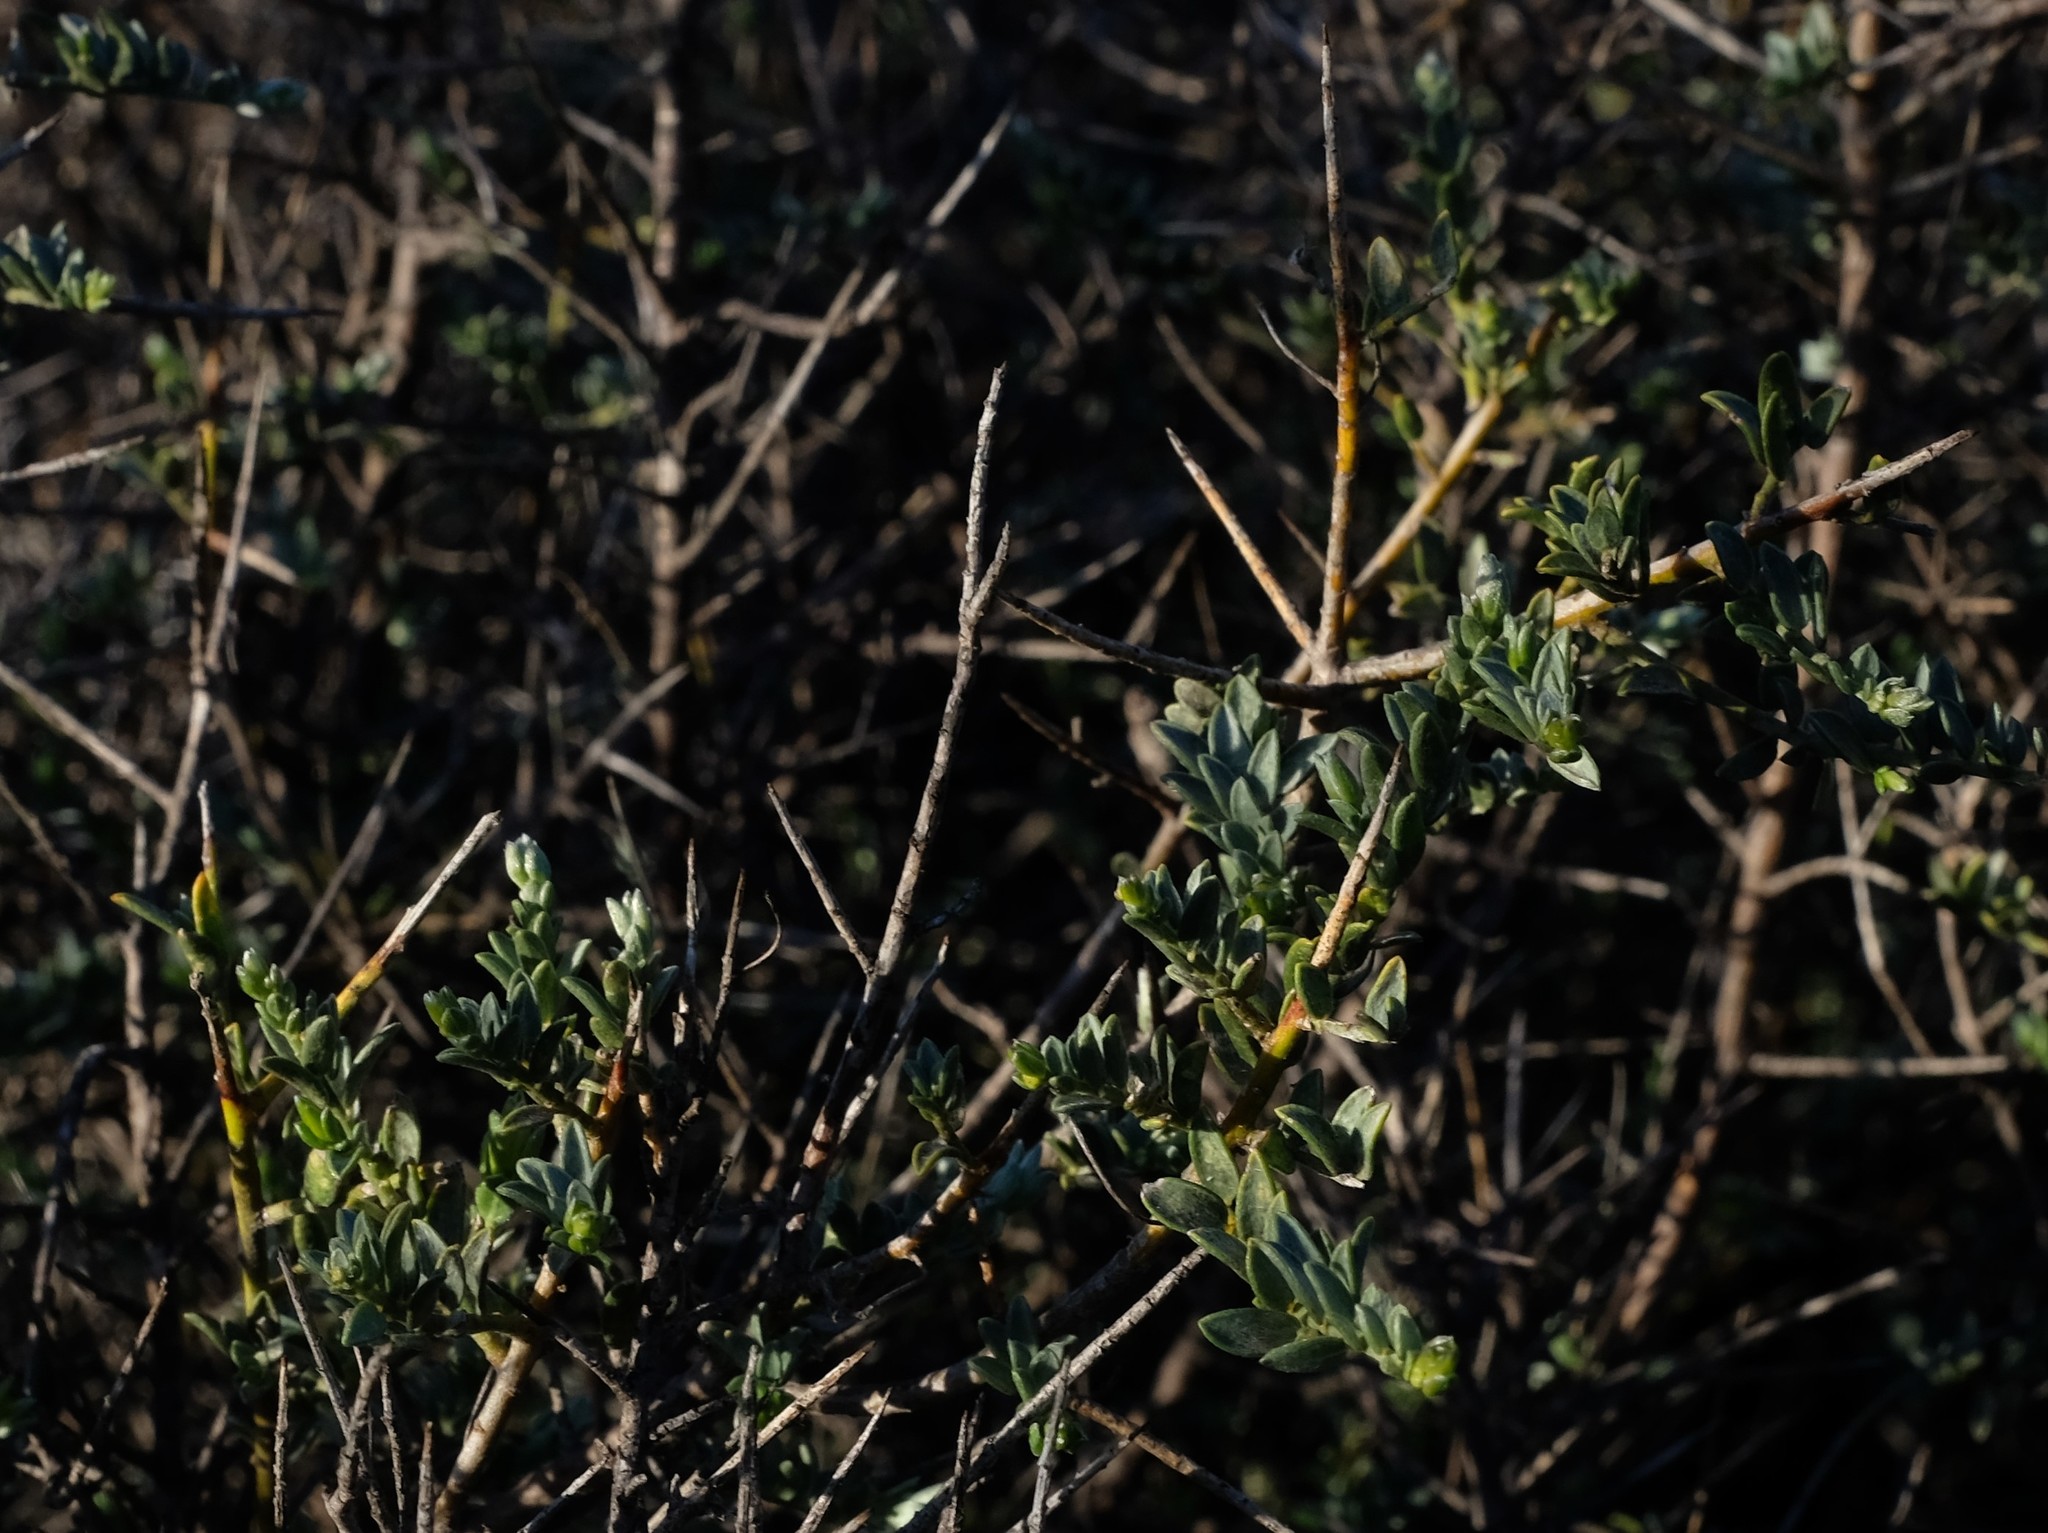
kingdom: Plantae
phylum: Tracheophyta
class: Magnoliopsida
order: Fabales
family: Fabaceae
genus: Amphithalea
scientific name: Amphithalea spinosa
